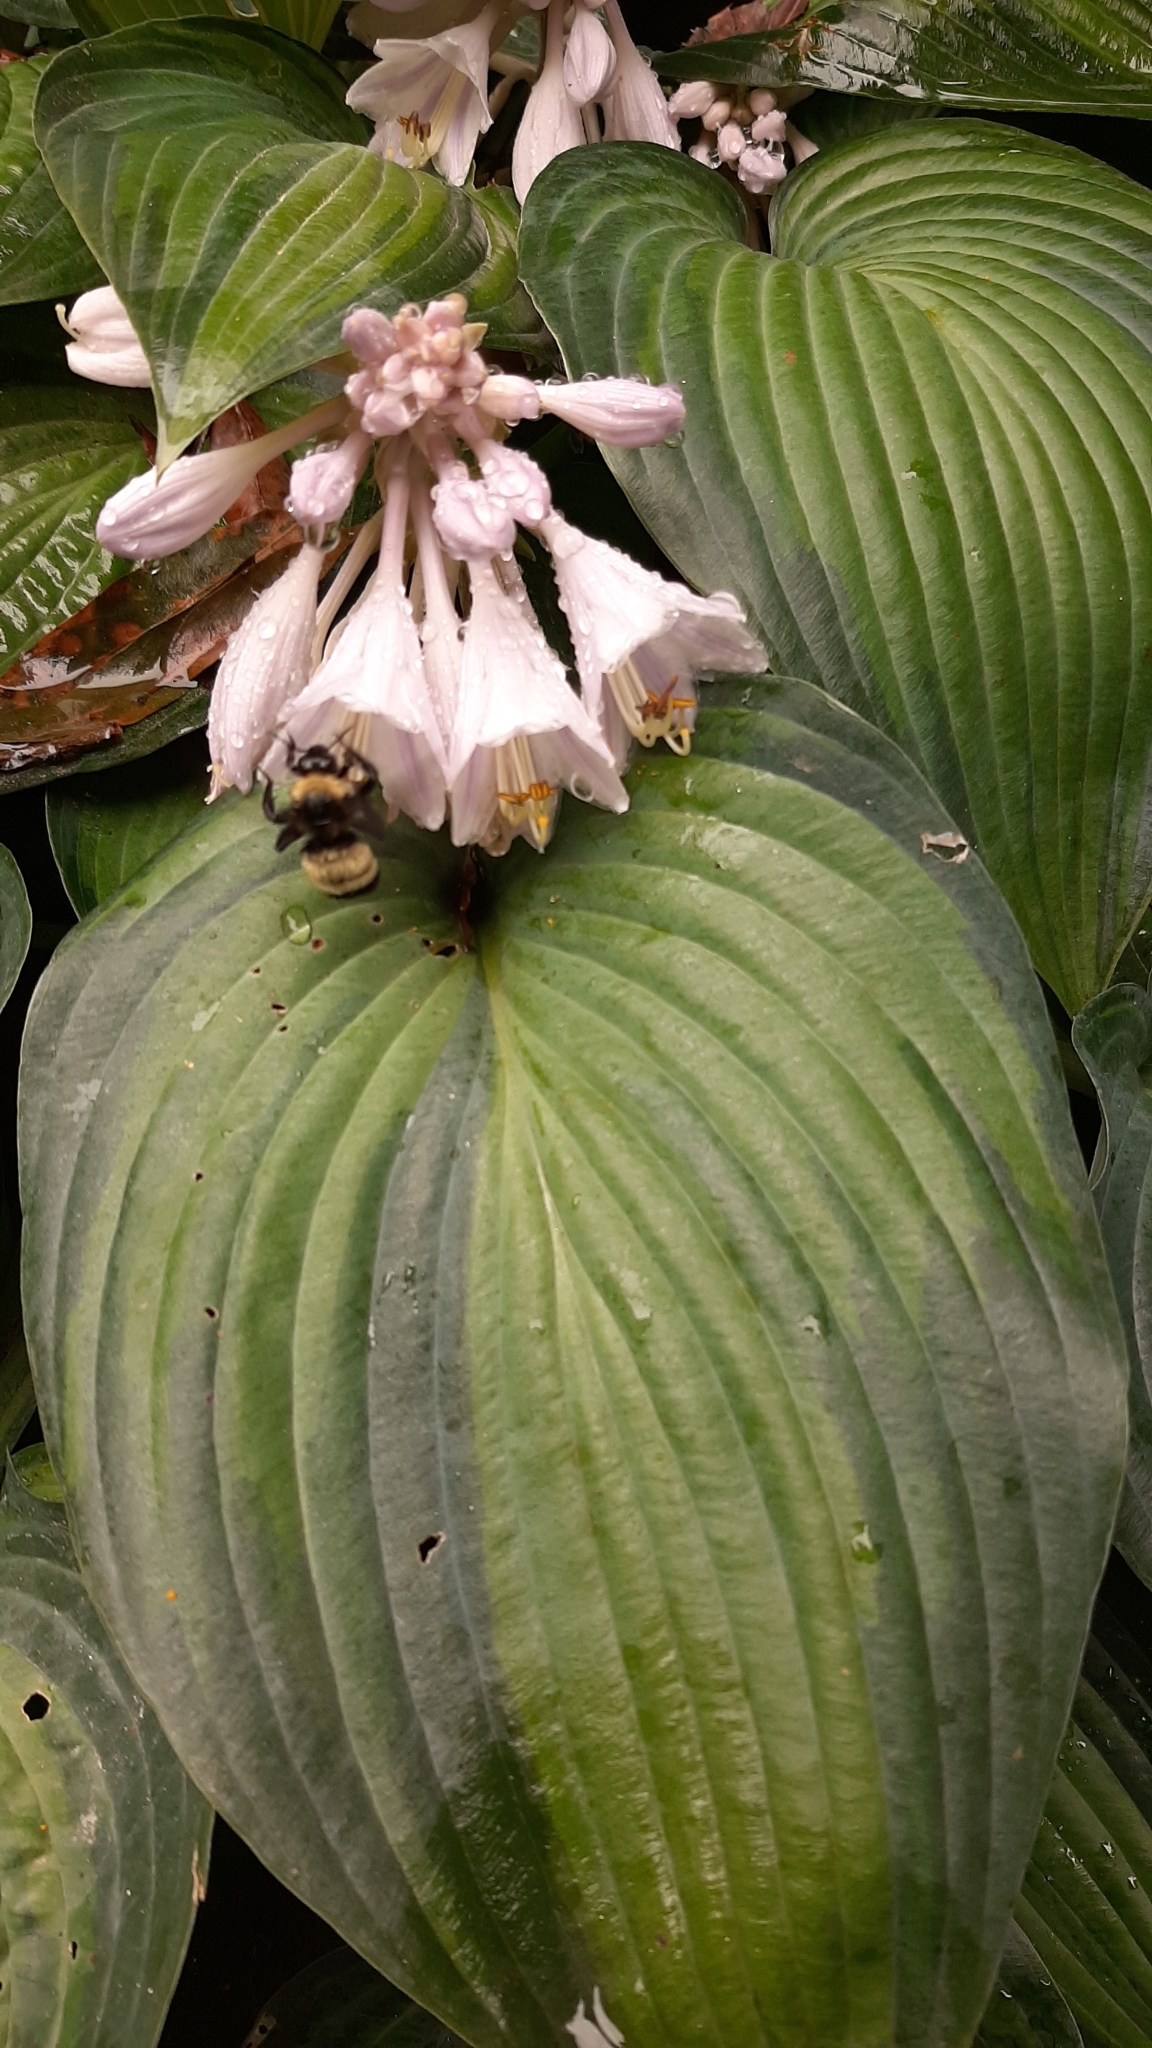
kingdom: Animalia
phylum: Arthropoda
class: Insecta
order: Hymenoptera
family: Apidae
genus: Bombus
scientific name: Bombus pensylvanicus
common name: Bumble bee
